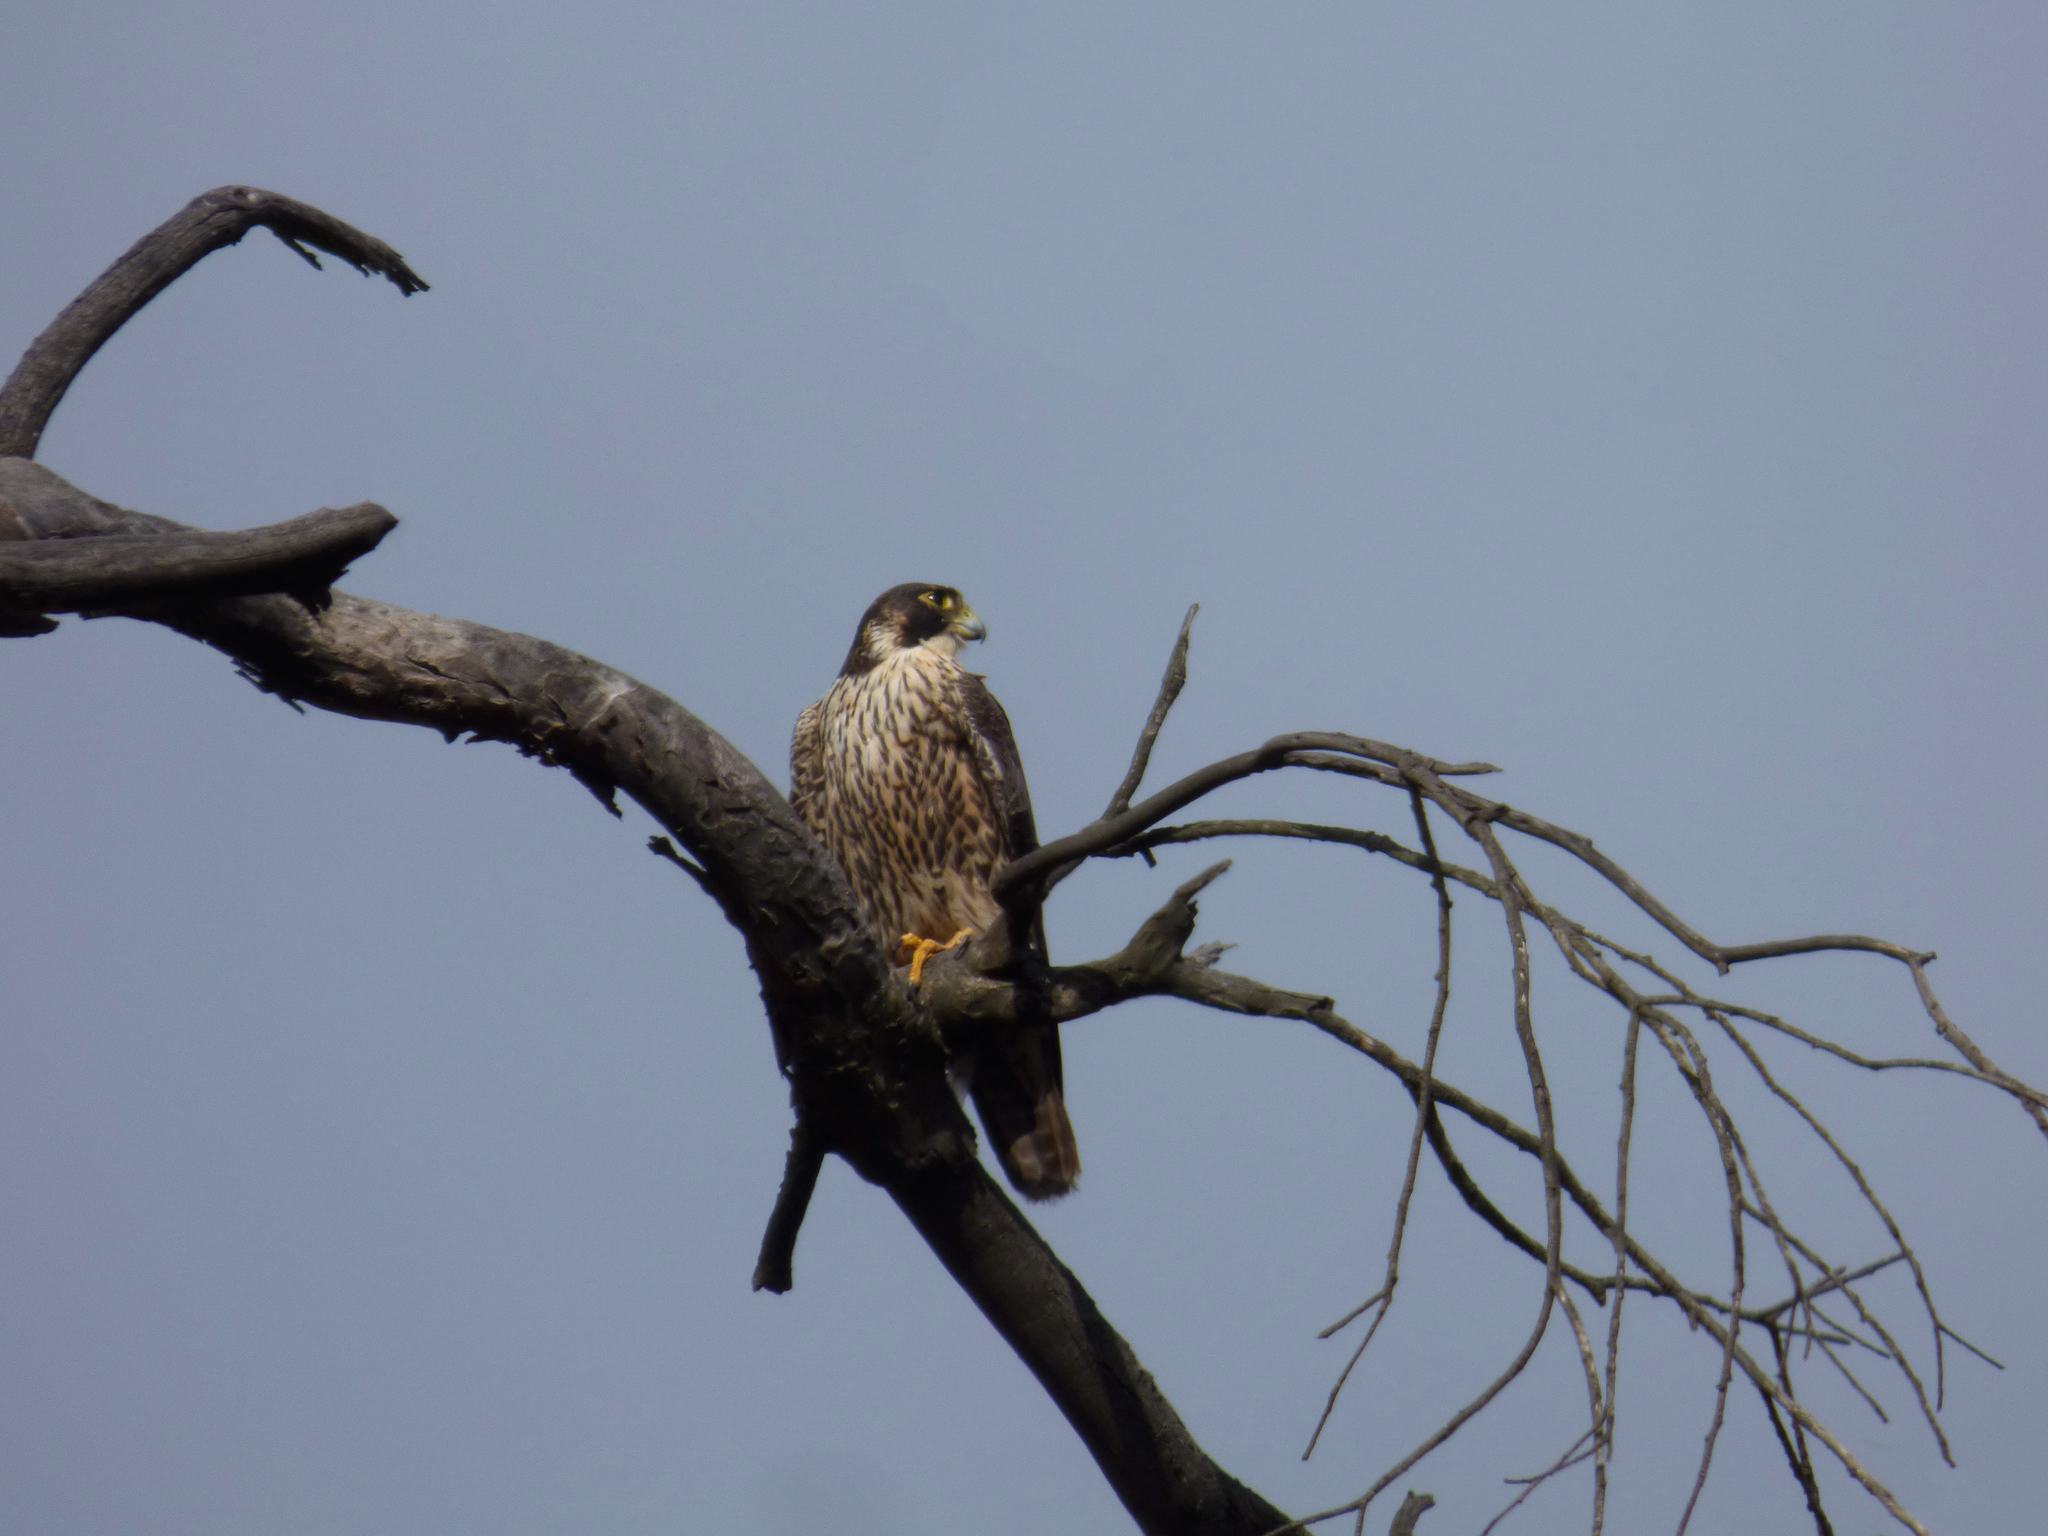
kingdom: Animalia
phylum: Chordata
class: Aves
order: Falconiformes
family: Falconidae
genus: Falco
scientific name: Falco peregrinus
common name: Peregrine falcon
